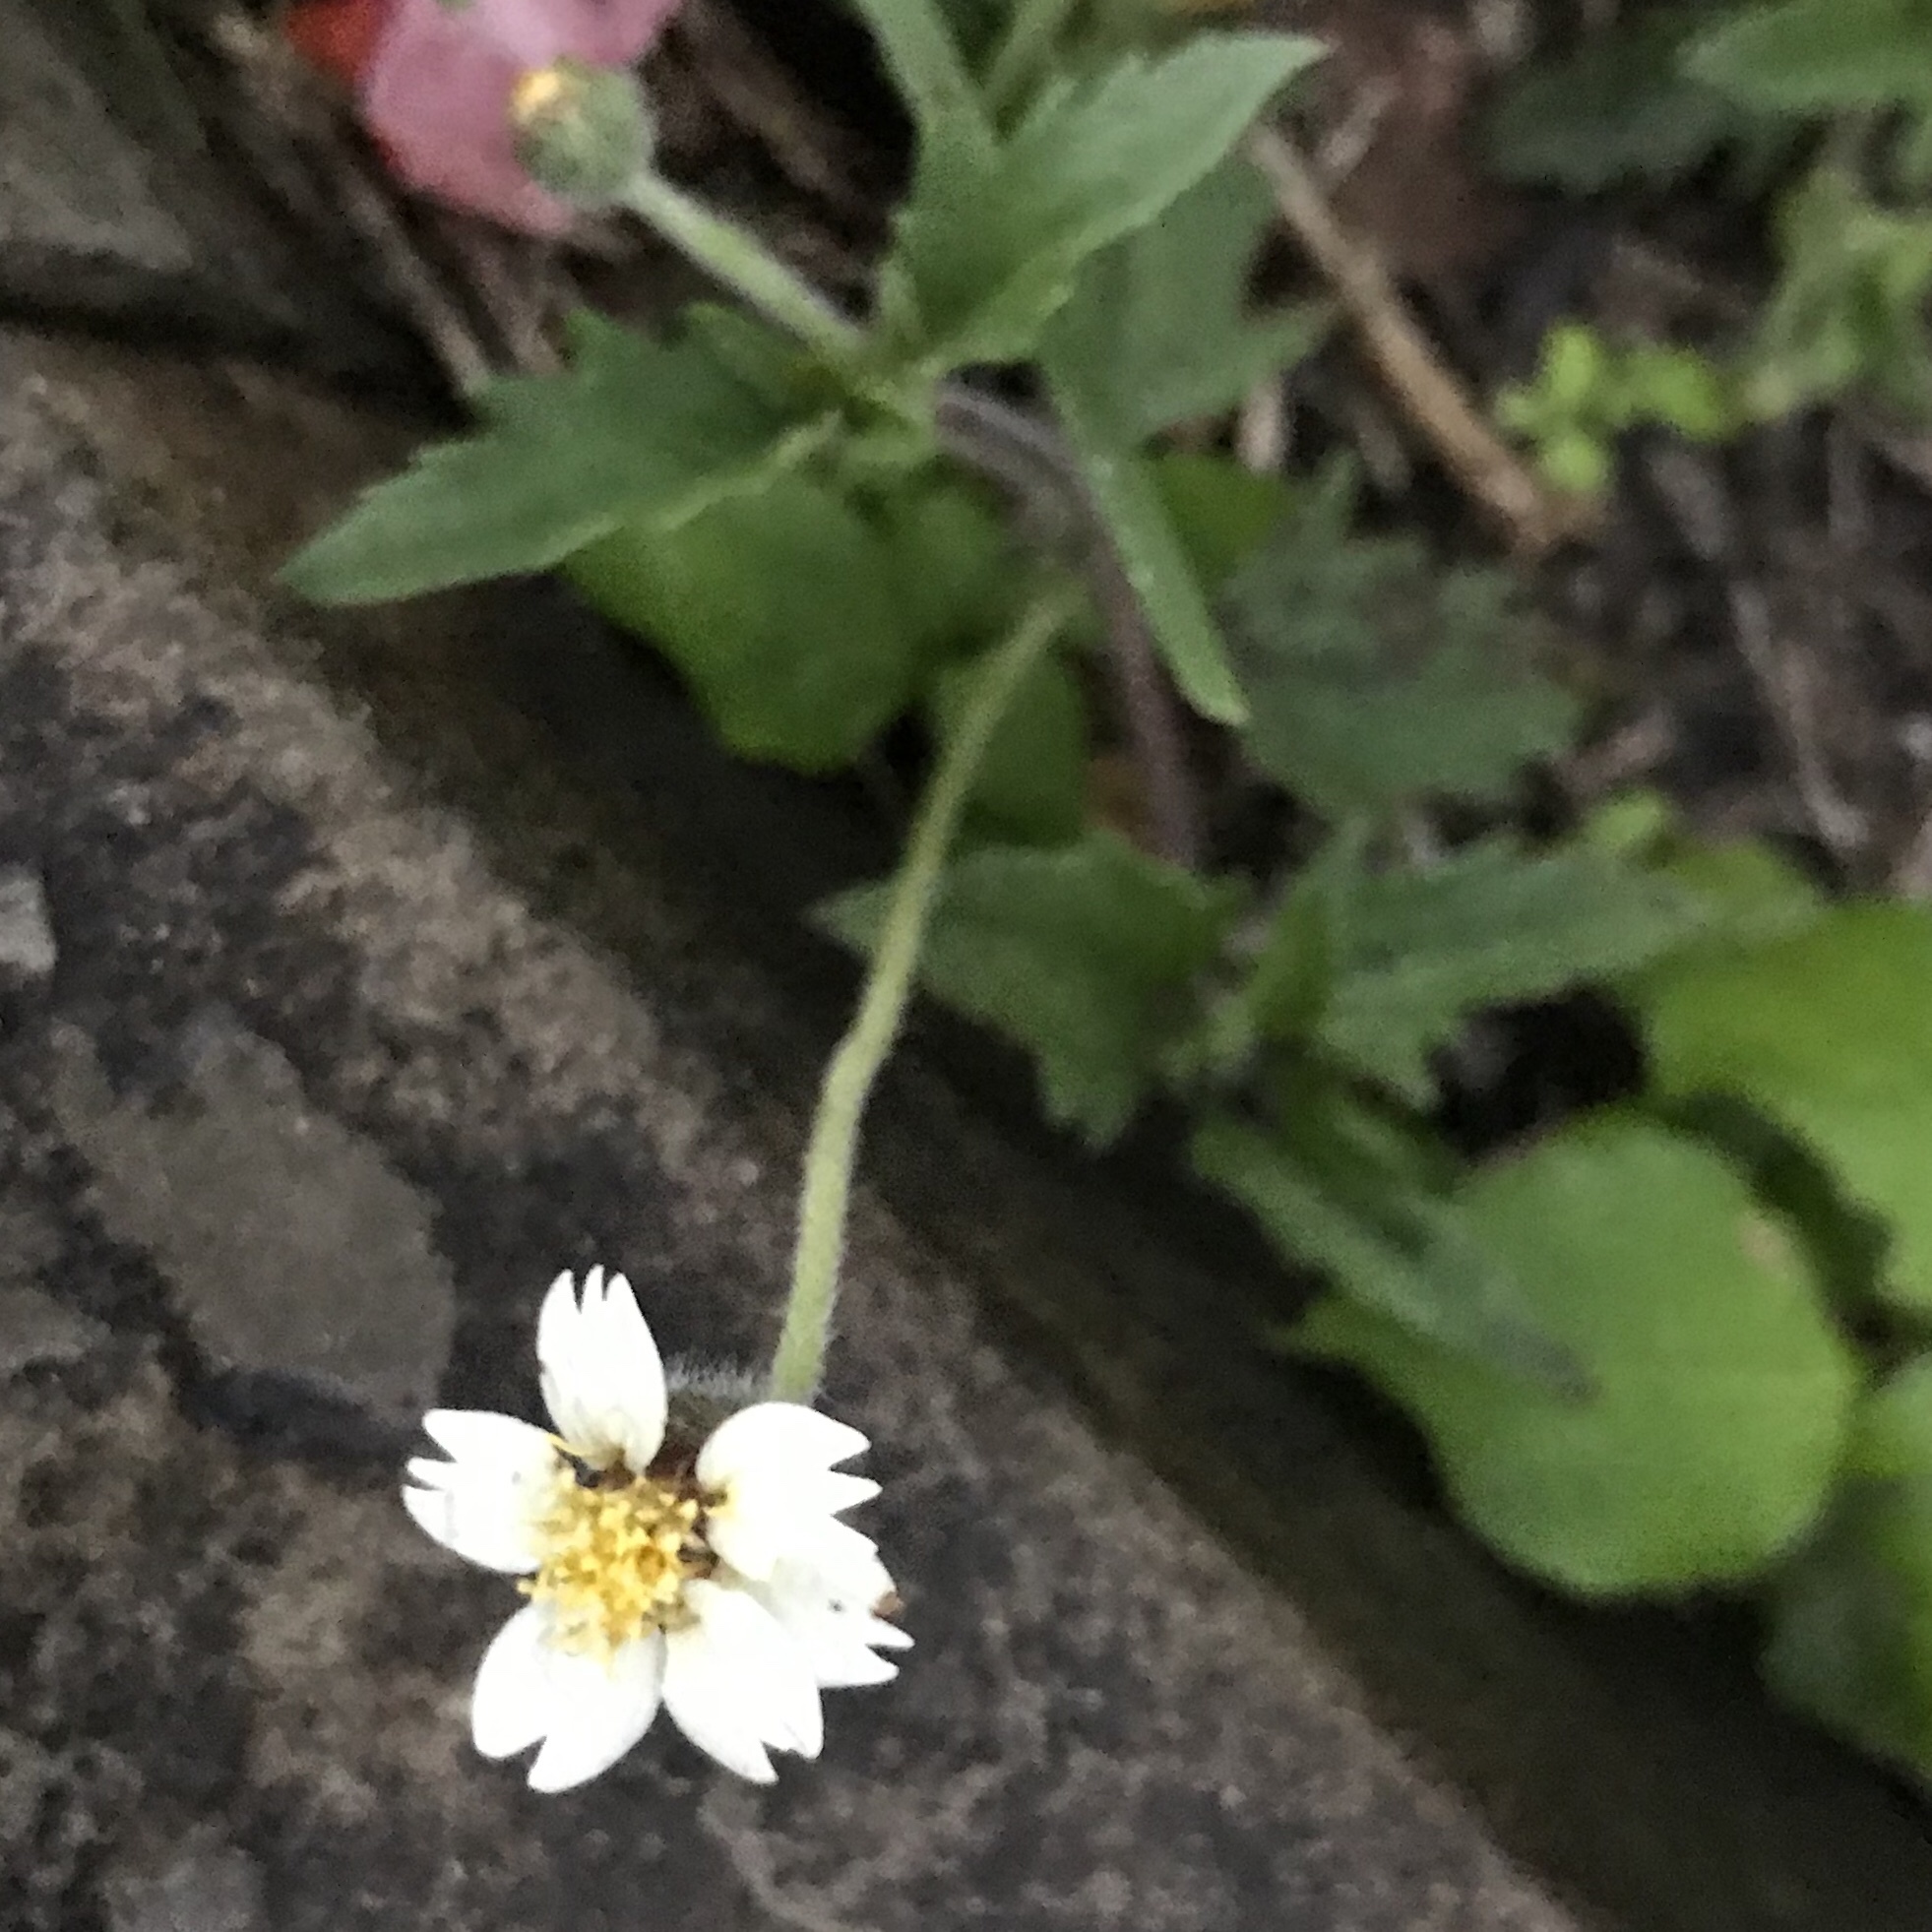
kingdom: Plantae
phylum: Tracheophyta
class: Magnoliopsida
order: Asterales
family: Asteraceae
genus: Tridax
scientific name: Tridax procumbens
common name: Coatbuttons
